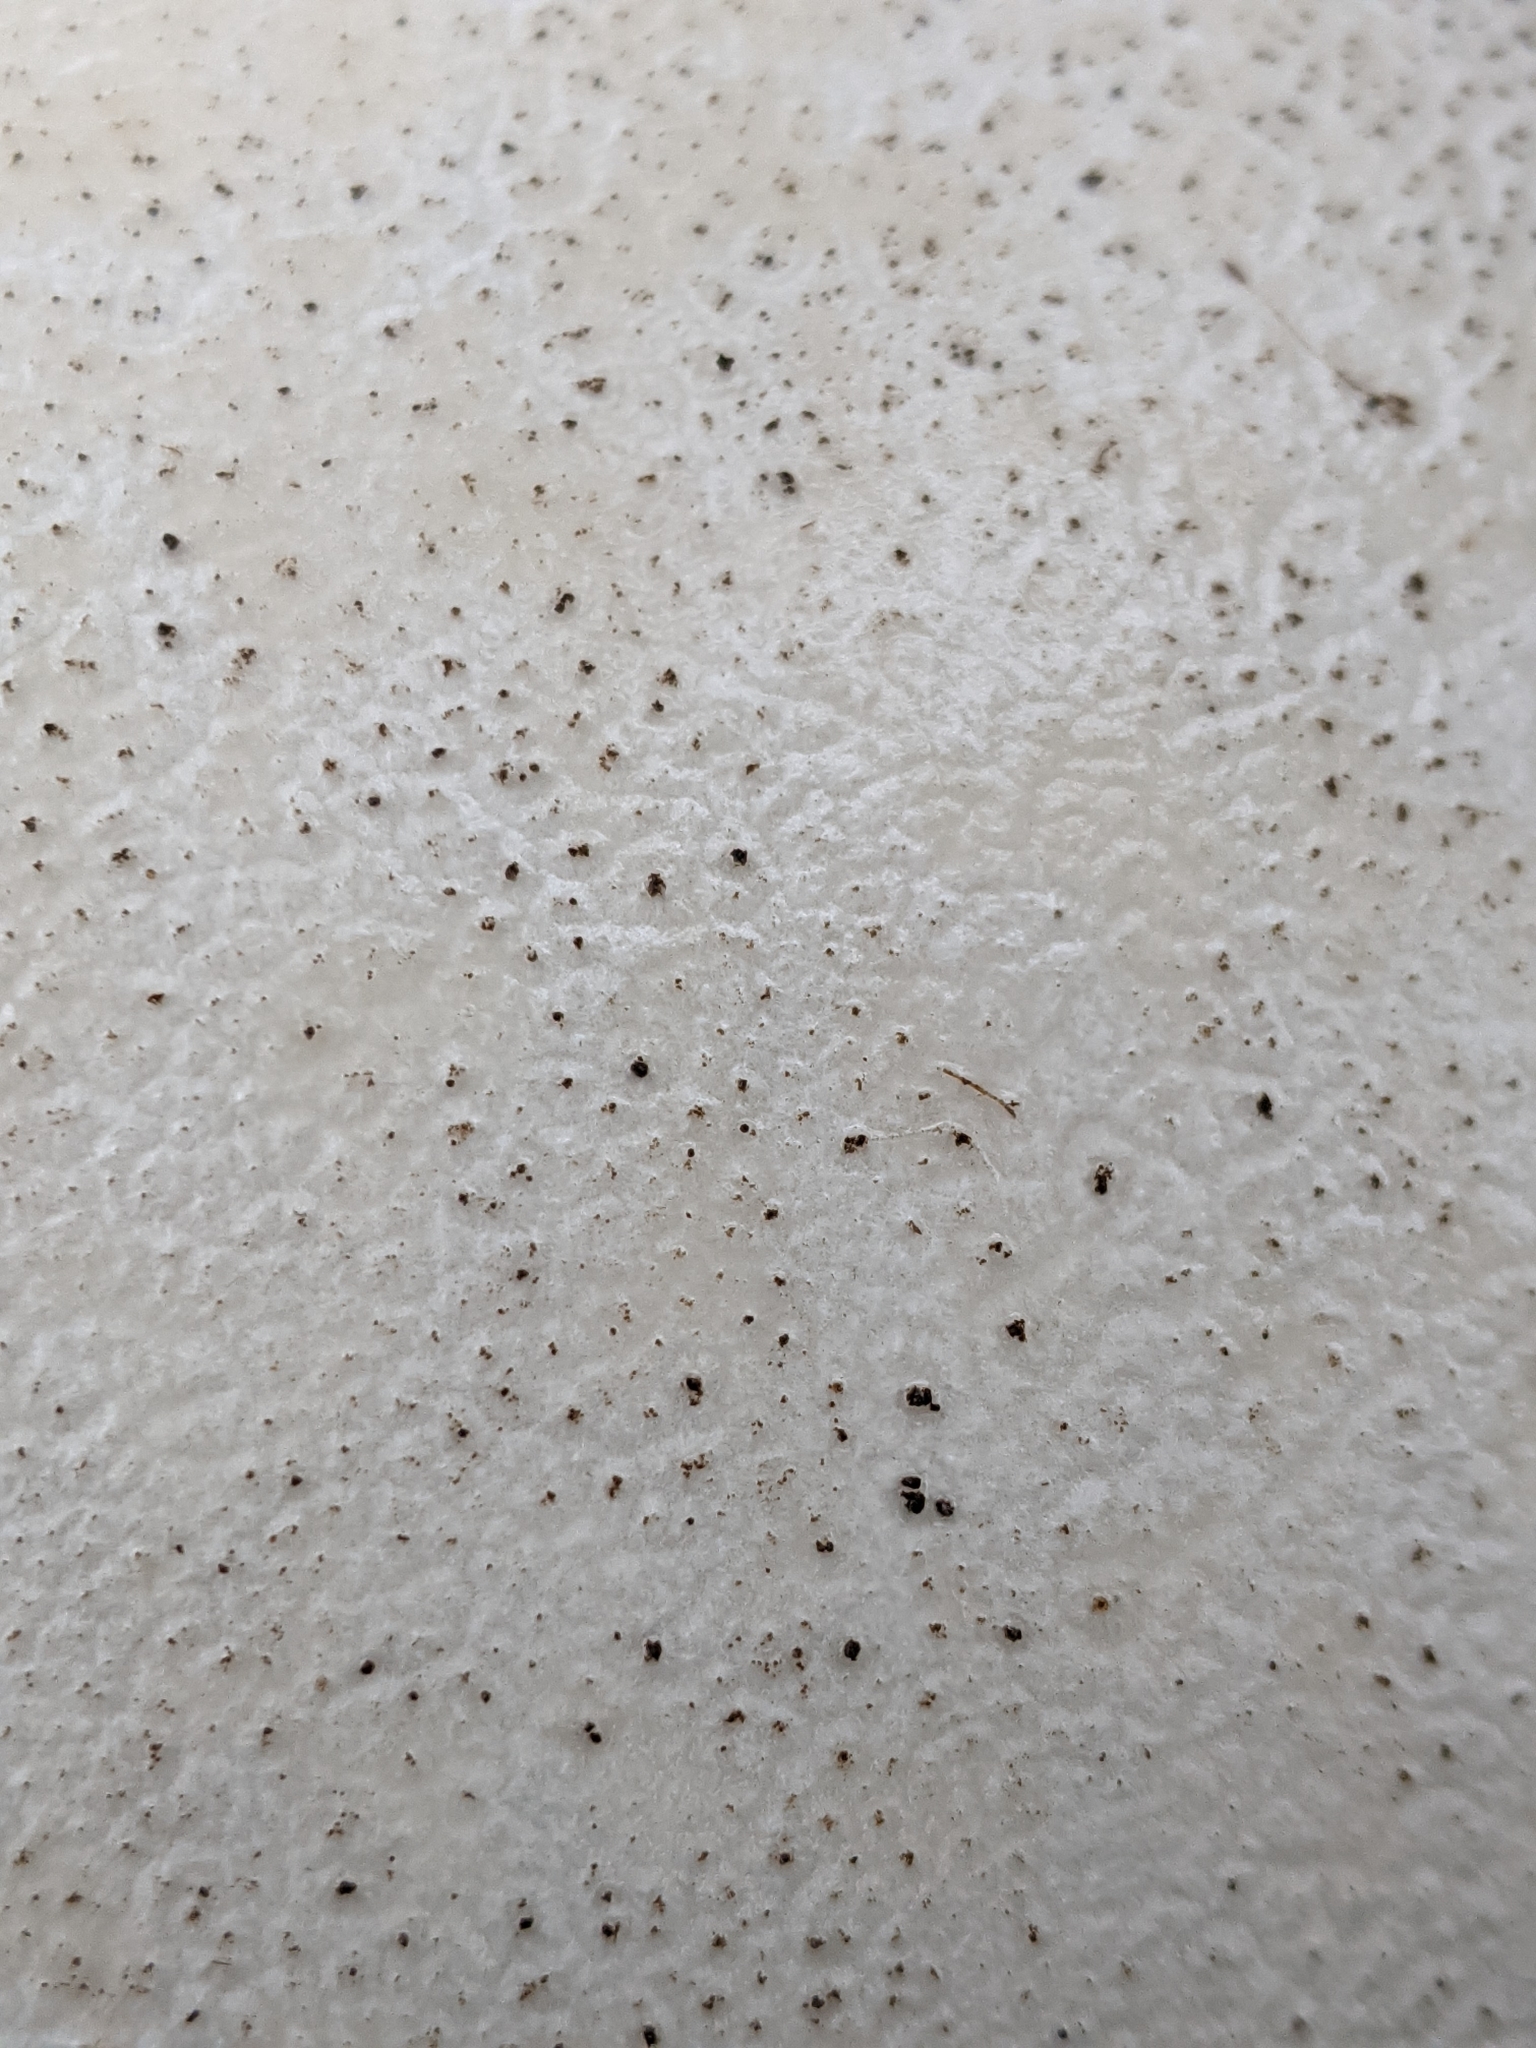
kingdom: Fungi
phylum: Basidiomycota
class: Agaricomycetes
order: Agaricales
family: Lycoperdaceae
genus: Calvatia
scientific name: Calvatia gigantea
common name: Giant puffball
